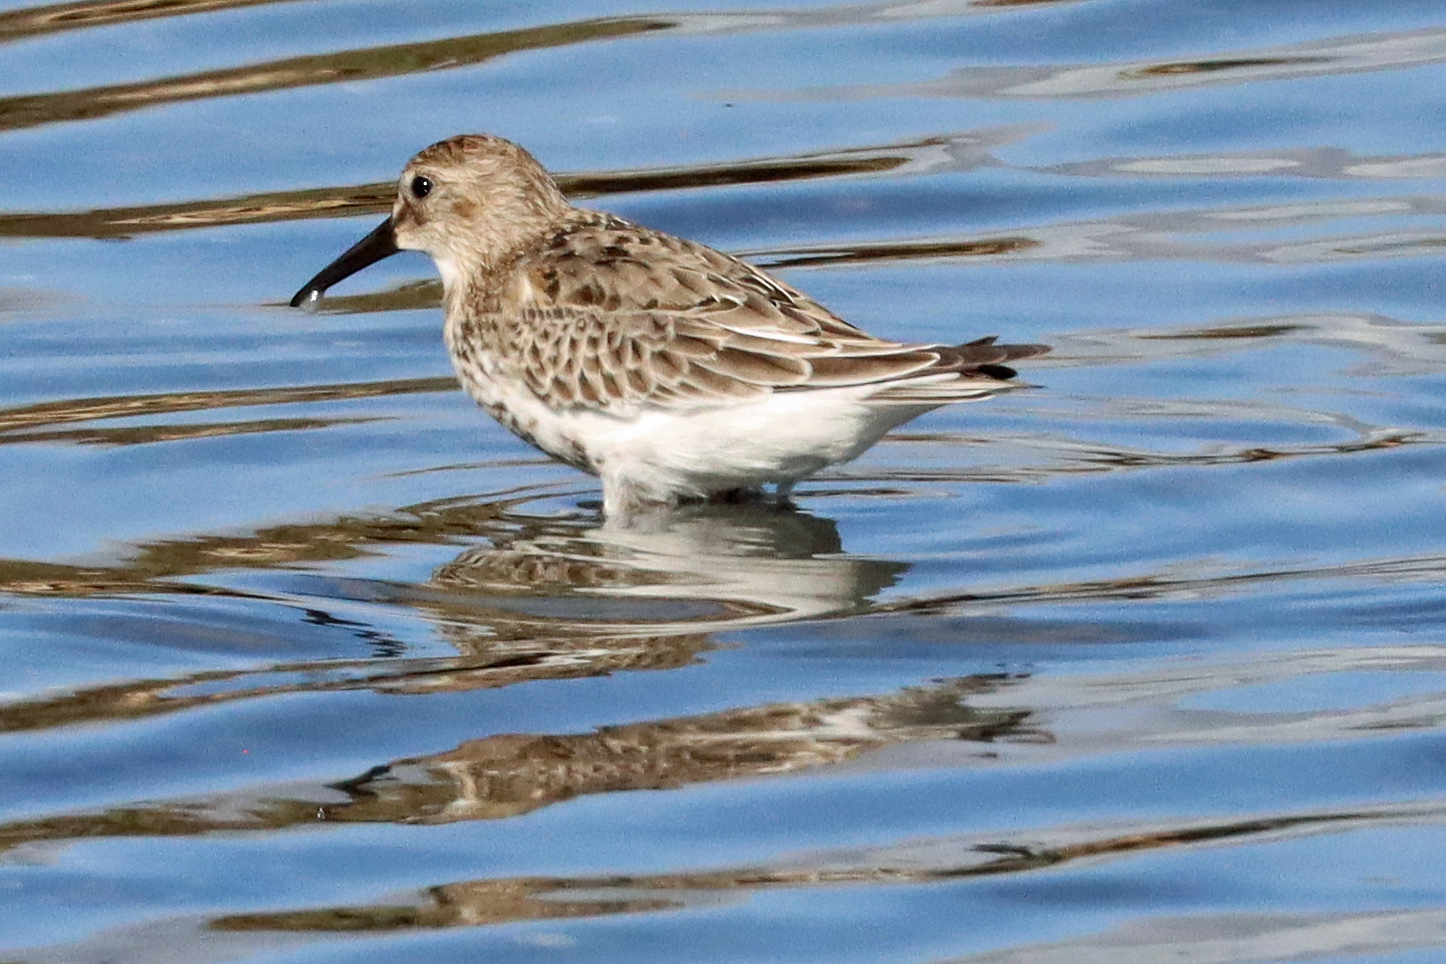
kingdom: Animalia
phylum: Chordata
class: Aves
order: Charadriiformes
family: Scolopacidae
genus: Calidris
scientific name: Calidris alpina
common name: Dunlin
